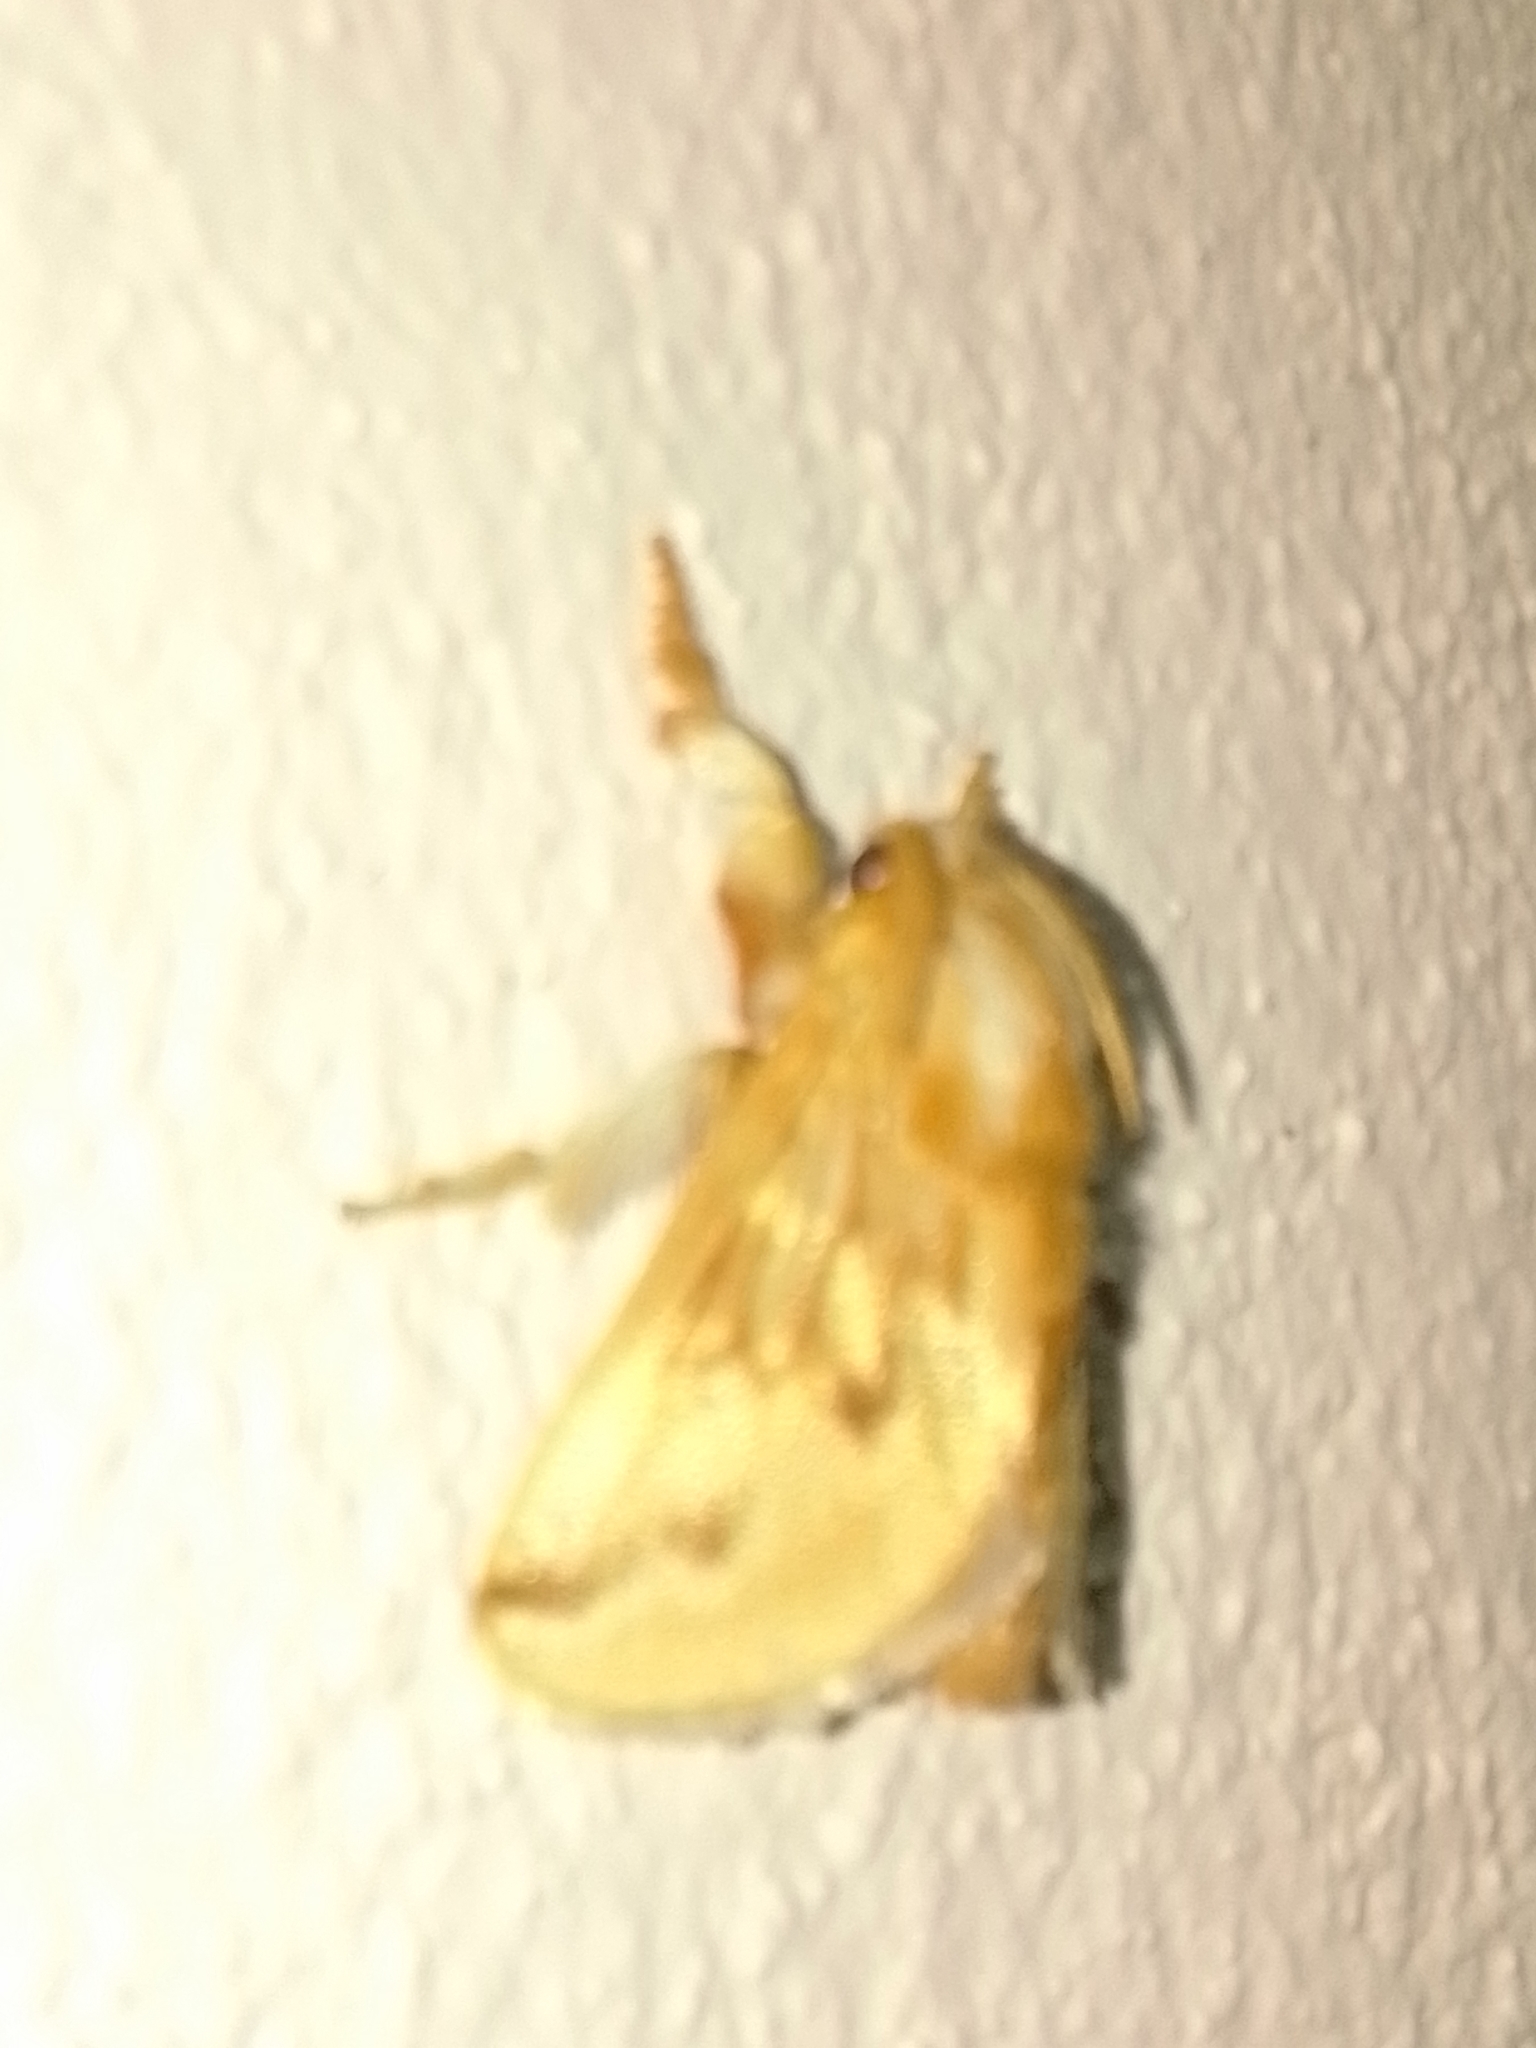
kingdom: Animalia
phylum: Arthropoda
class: Insecta
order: Lepidoptera
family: Limacodidae
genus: Perola
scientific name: Perola sericea
